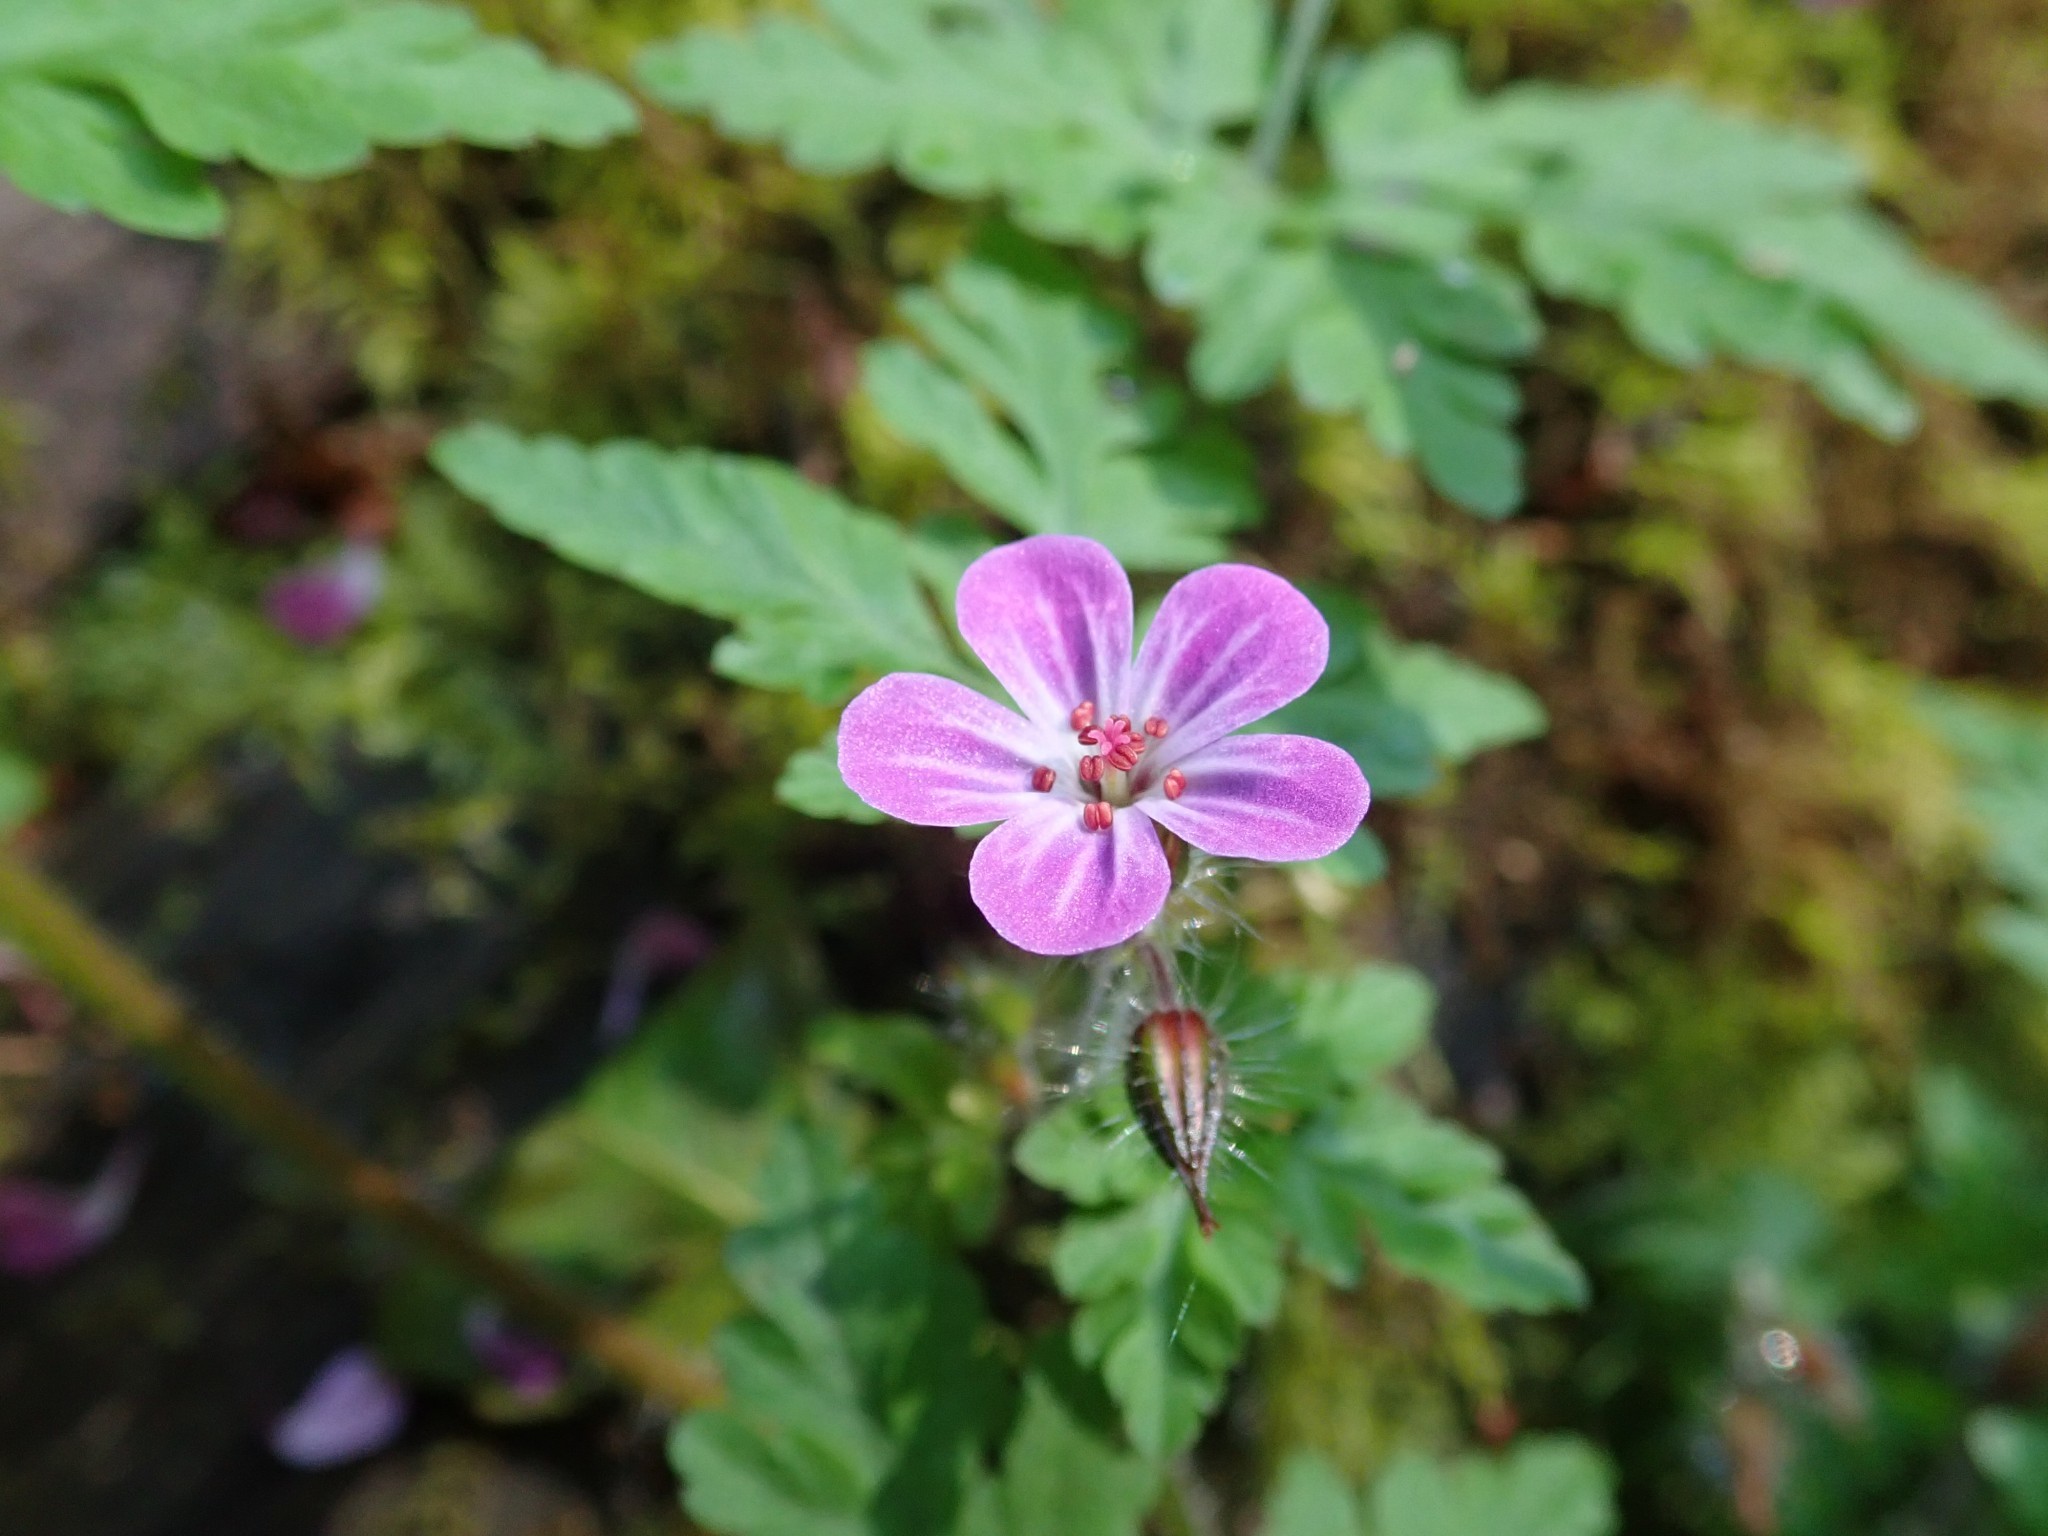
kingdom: Plantae
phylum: Tracheophyta
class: Magnoliopsida
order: Geraniales
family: Geraniaceae
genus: Geranium
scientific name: Geranium robertianum
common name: Herb-robert
